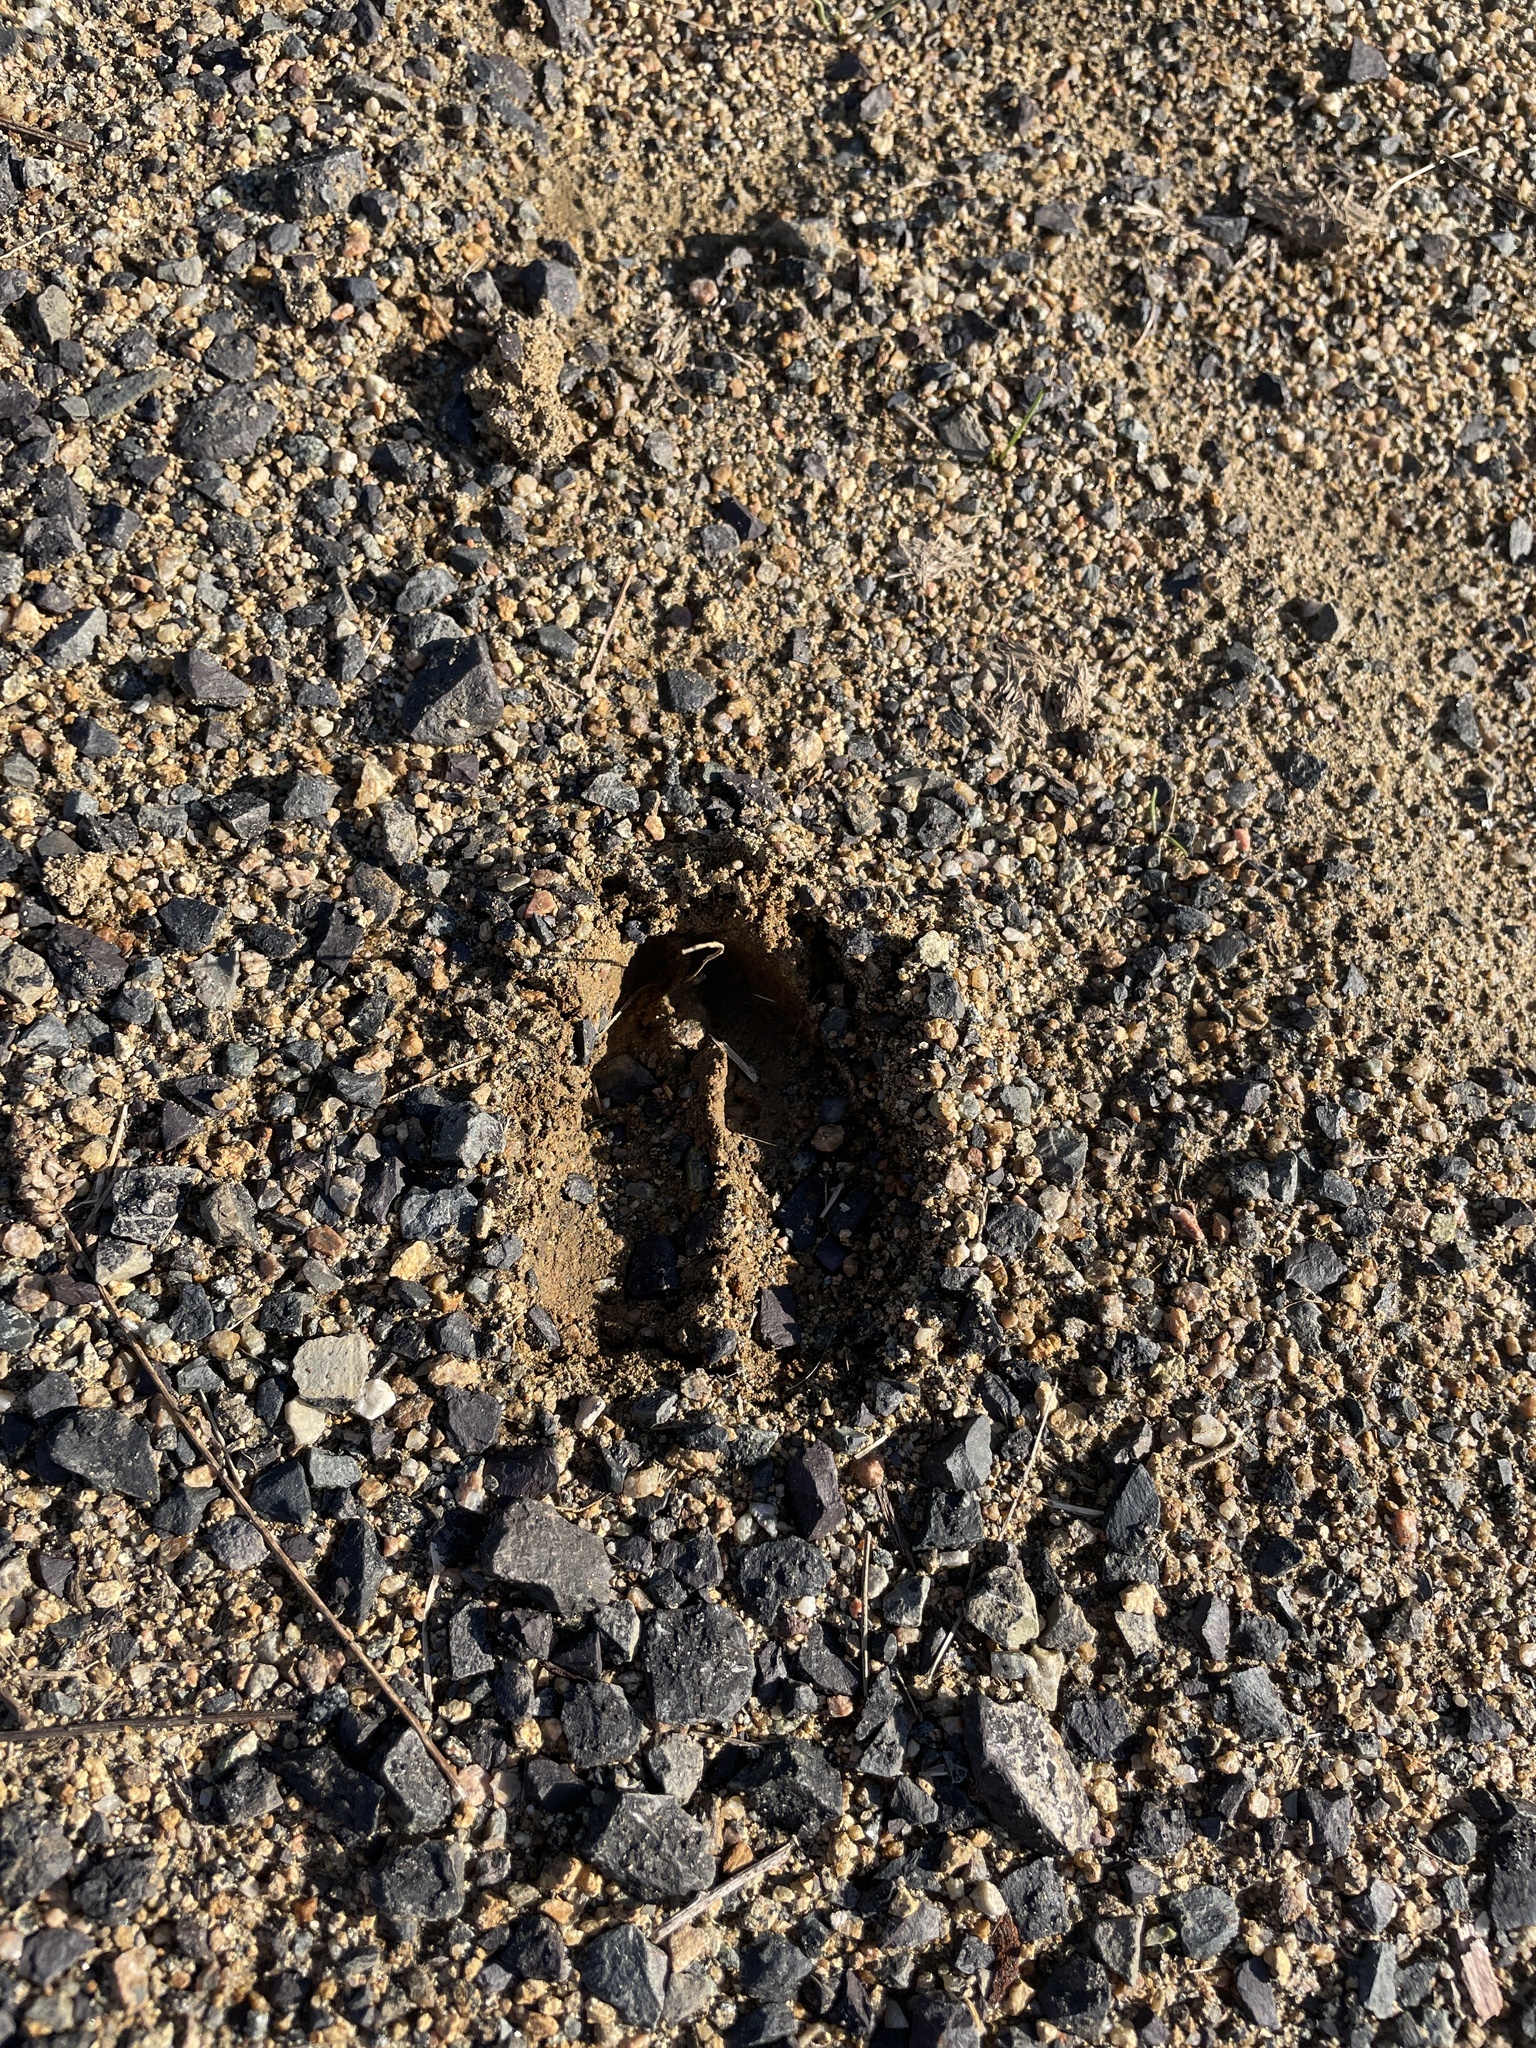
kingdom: Animalia
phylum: Chordata
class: Mammalia
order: Artiodactyla
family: Cervidae
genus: Odocoileus
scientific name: Odocoileus virginianus
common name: White-tailed deer
